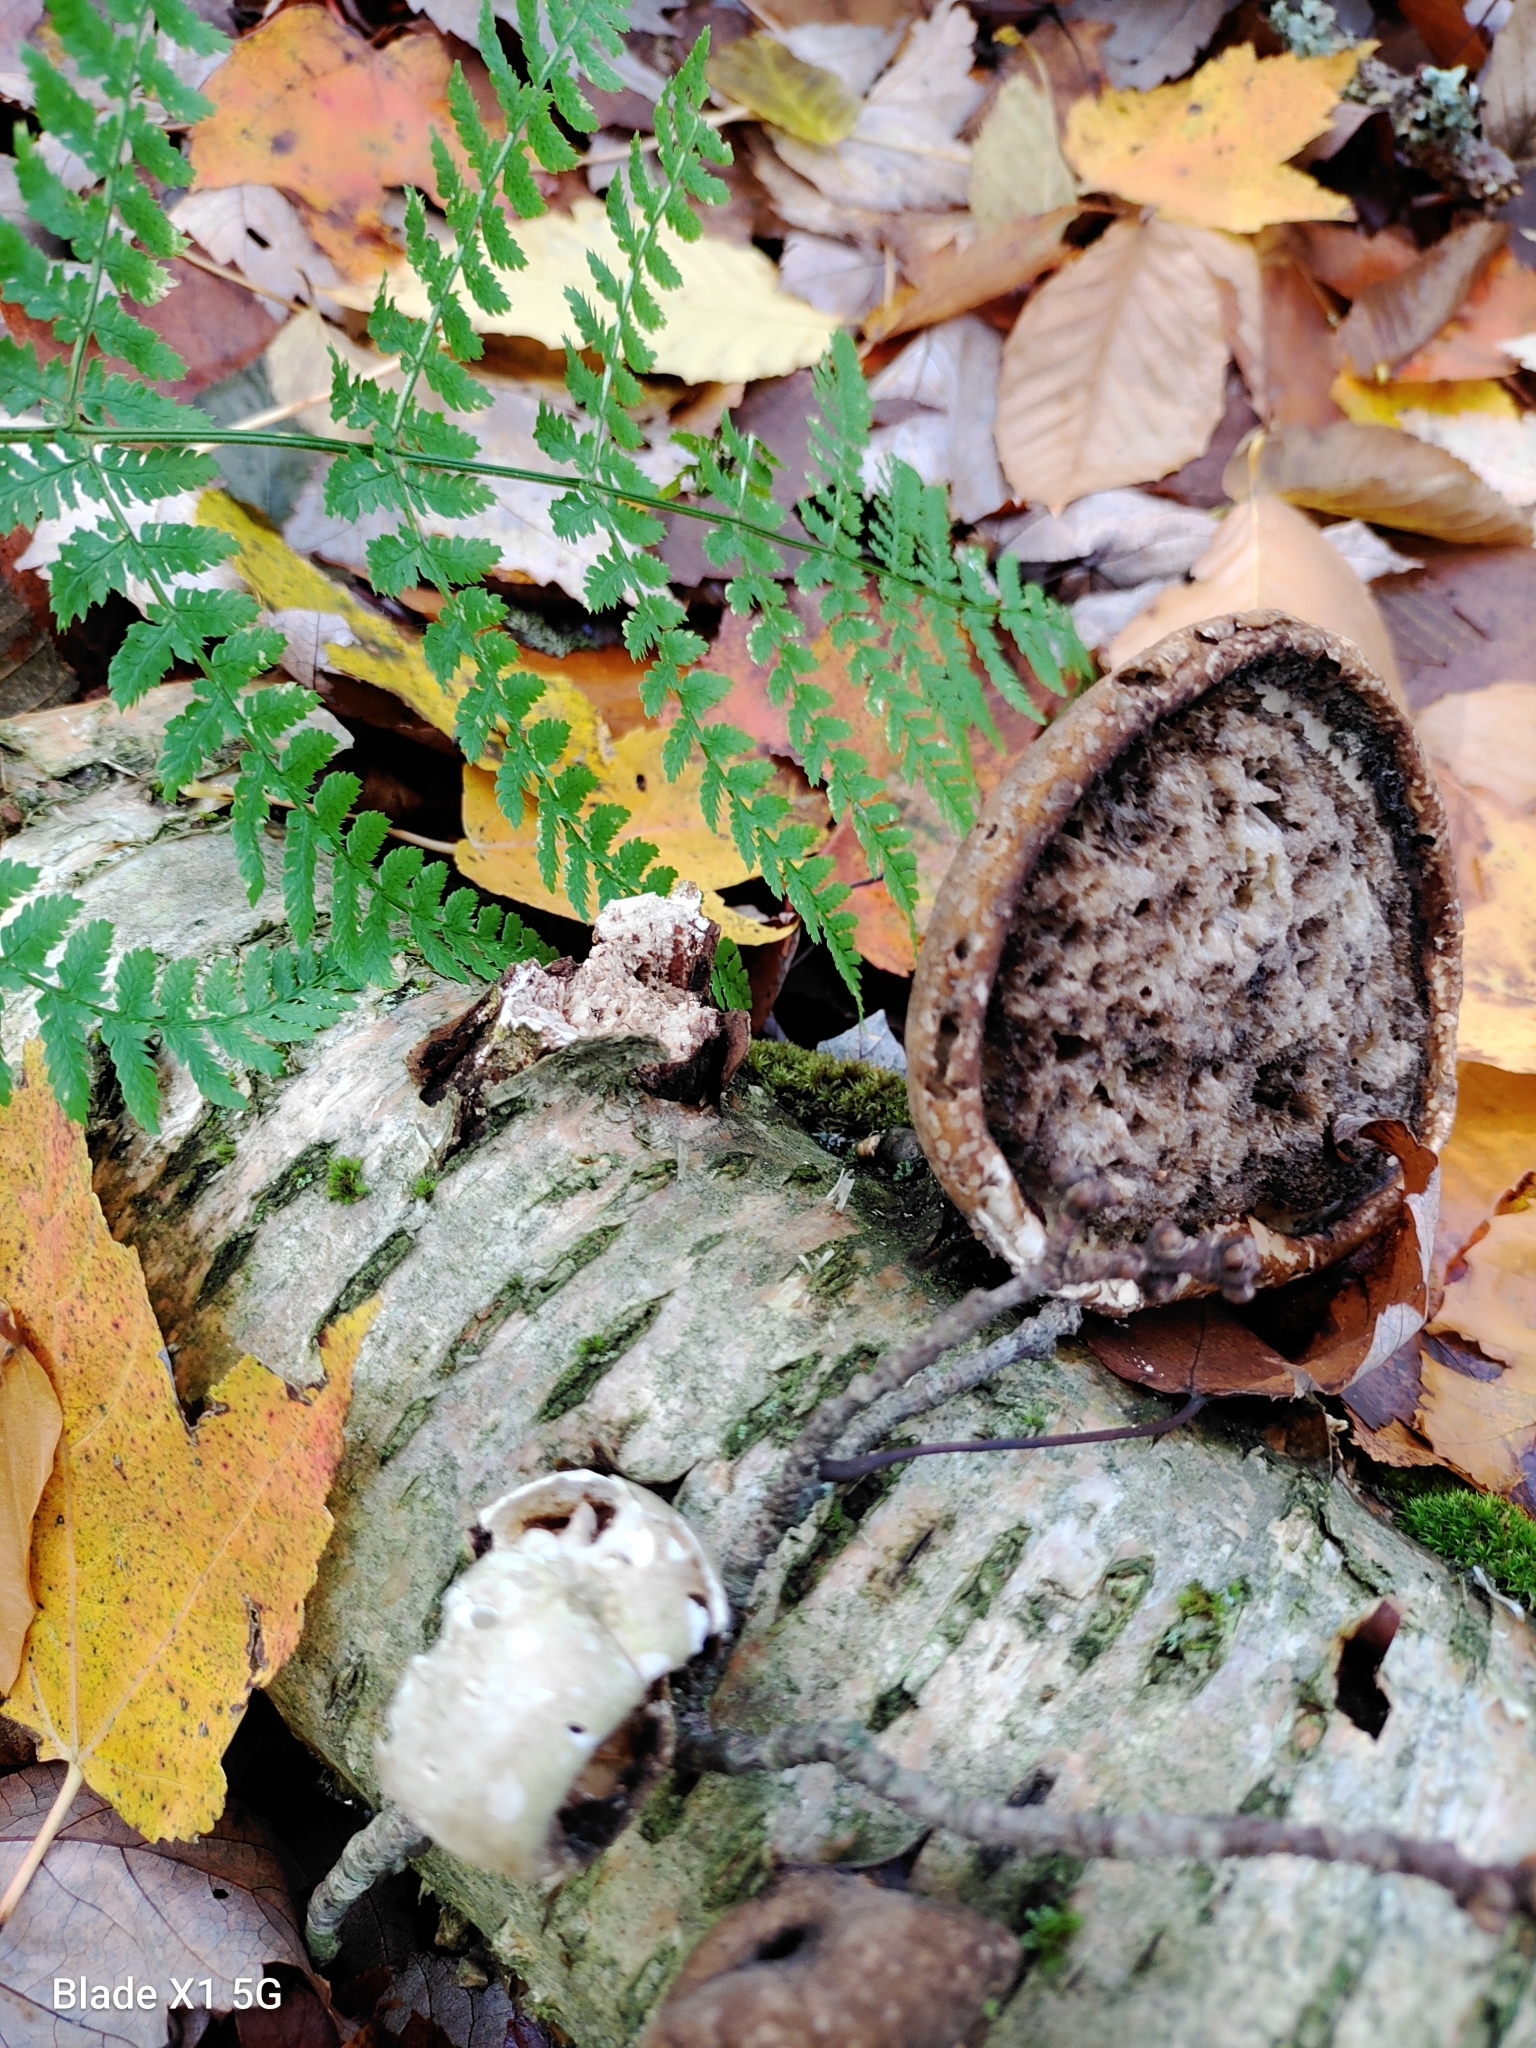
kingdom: Fungi
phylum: Basidiomycota
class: Agaricomycetes
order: Polyporales
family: Fomitopsidaceae
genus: Fomitopsis
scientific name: Fomitopsis betulina
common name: Birch polypore
